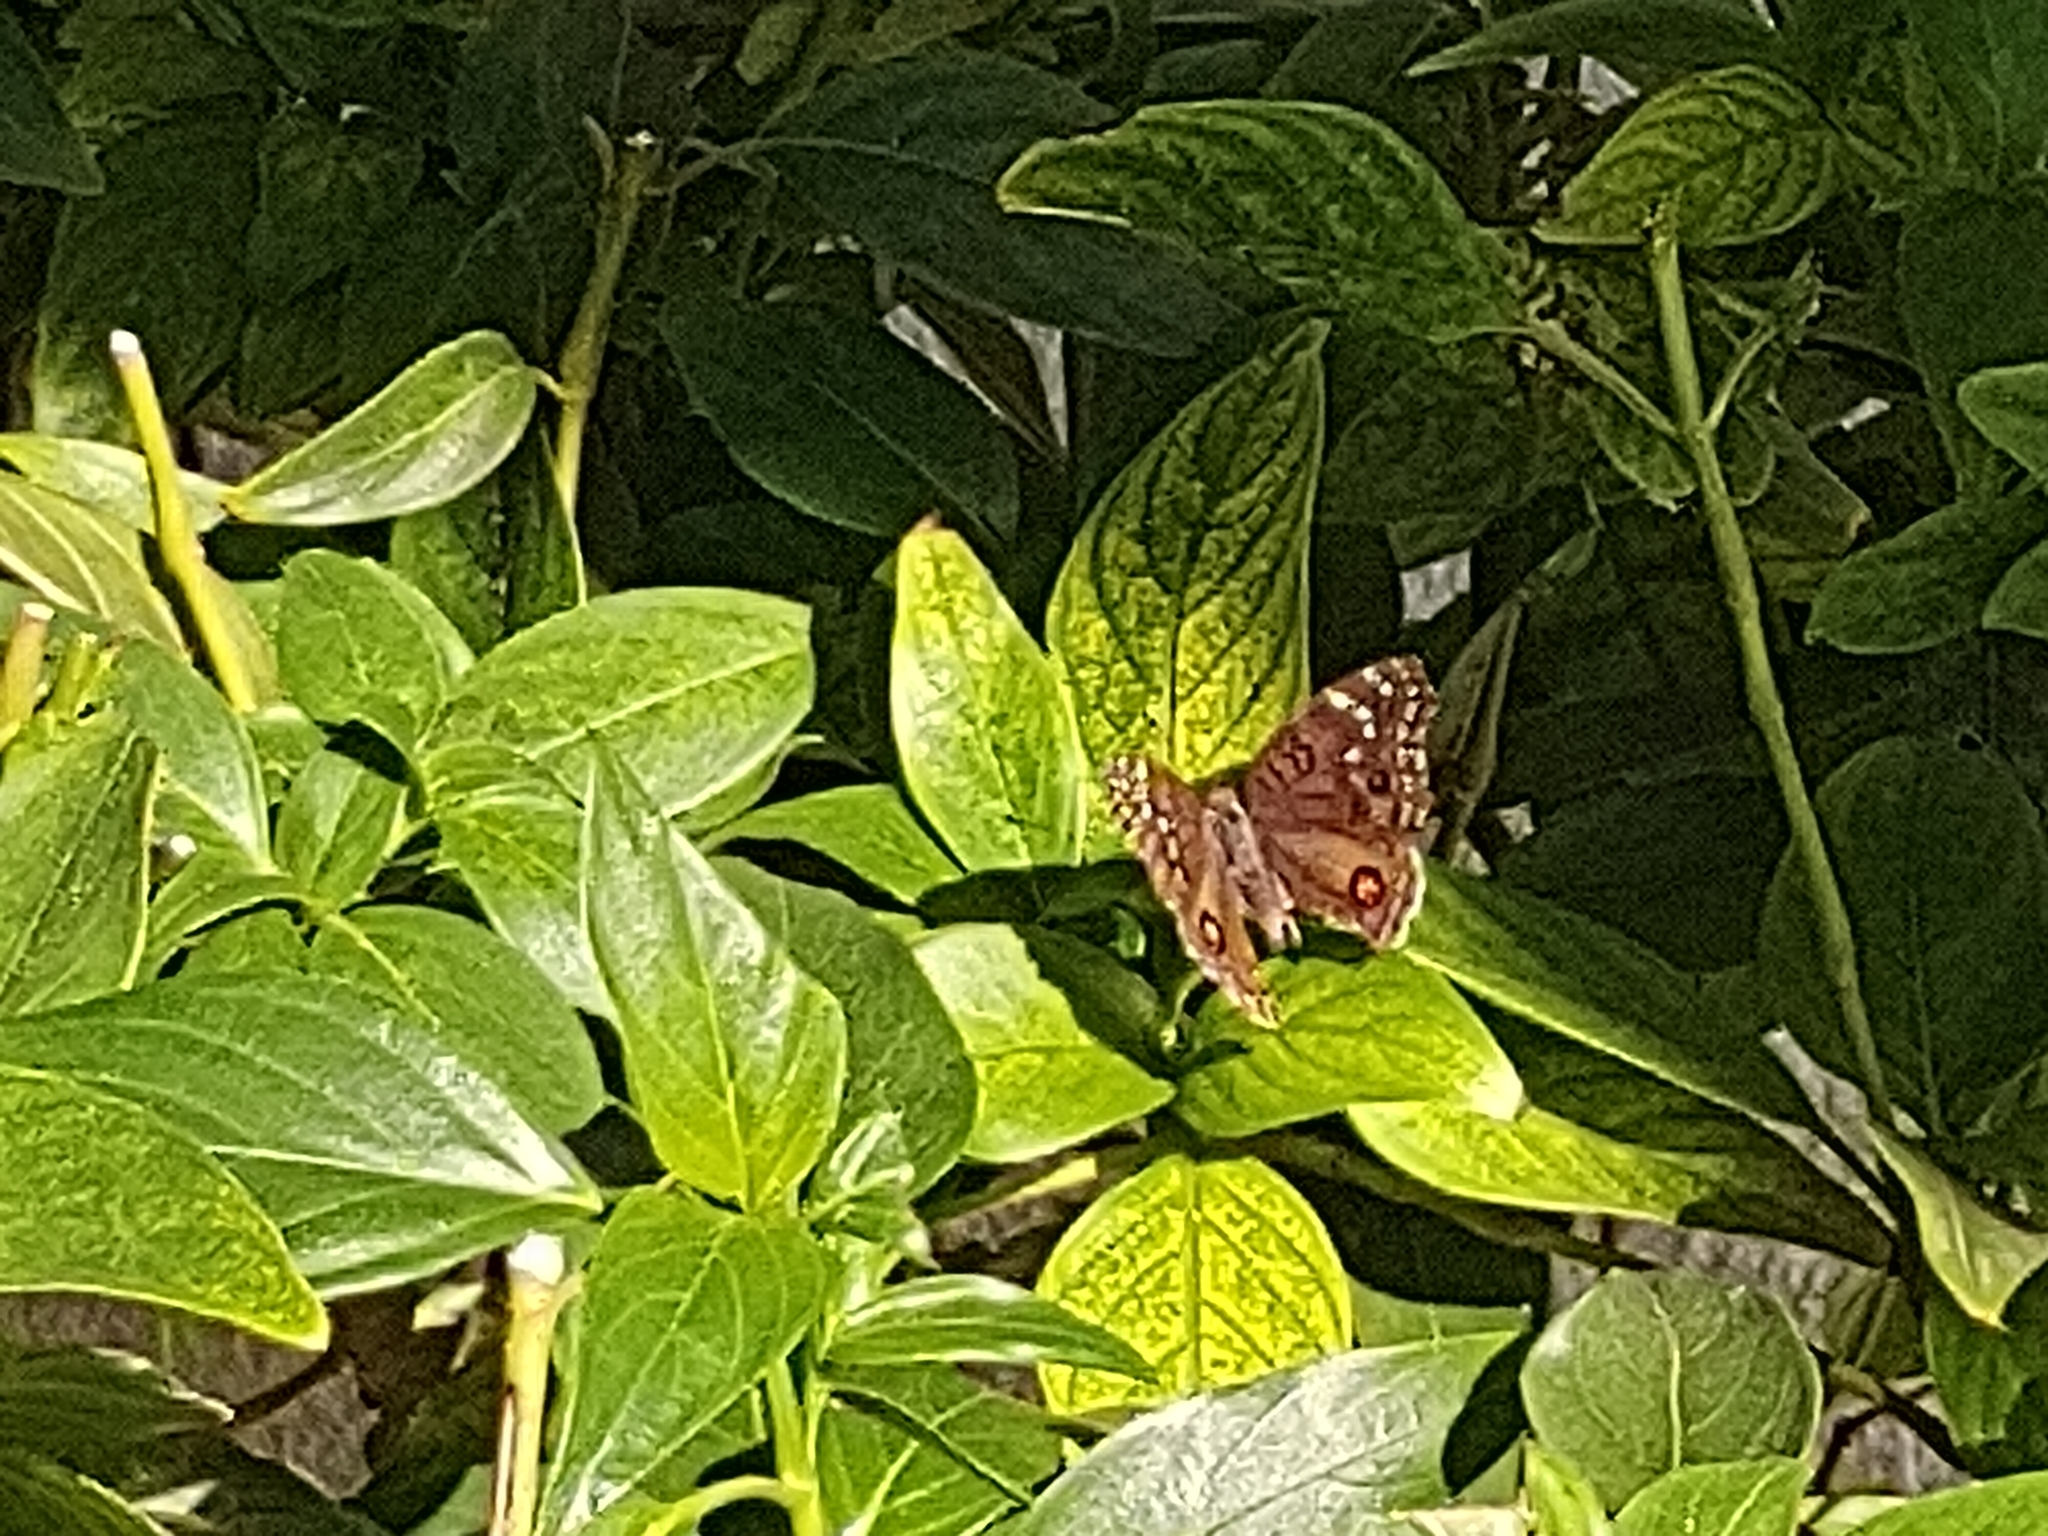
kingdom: Animalia
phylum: Arthropoda
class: Insecta
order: Lepidoptera
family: Nymphalidae
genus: Junonia
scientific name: Junonia rhadama
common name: Royal blue pansy
